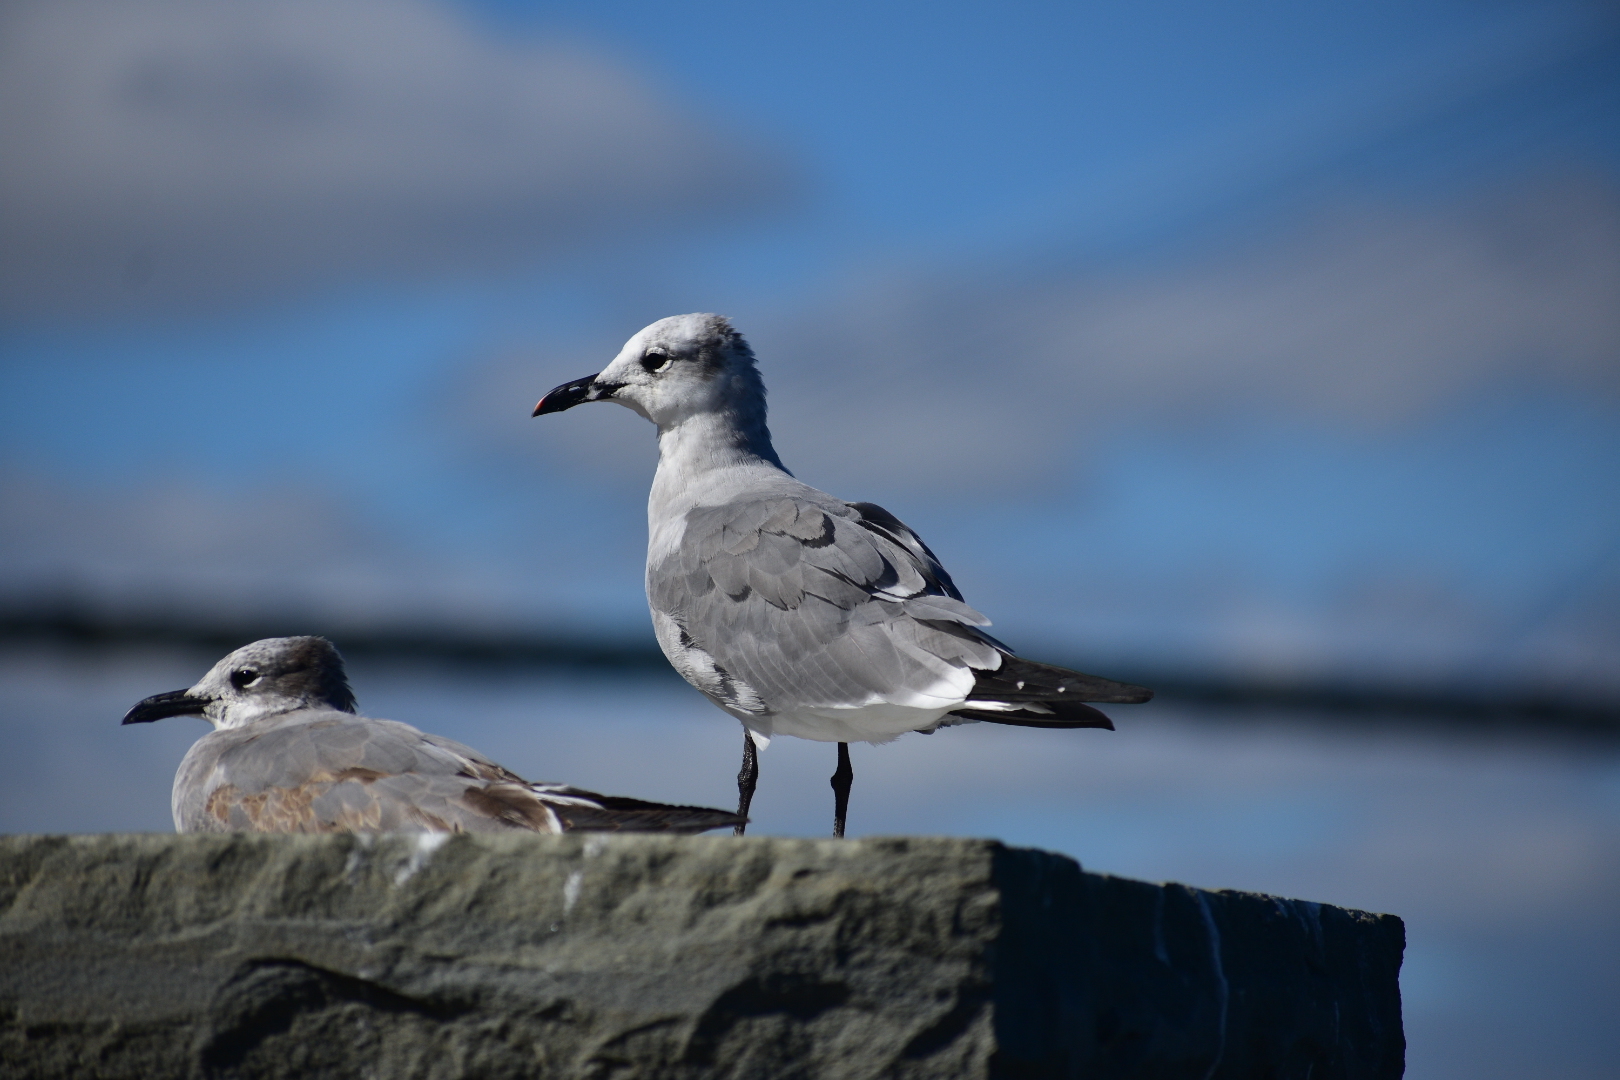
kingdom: Animalia
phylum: Chordata
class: Aves
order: Charadriiformes
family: Laridae
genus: Leucophaeus
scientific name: Leucophaeus atricilla
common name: Laughing gull
